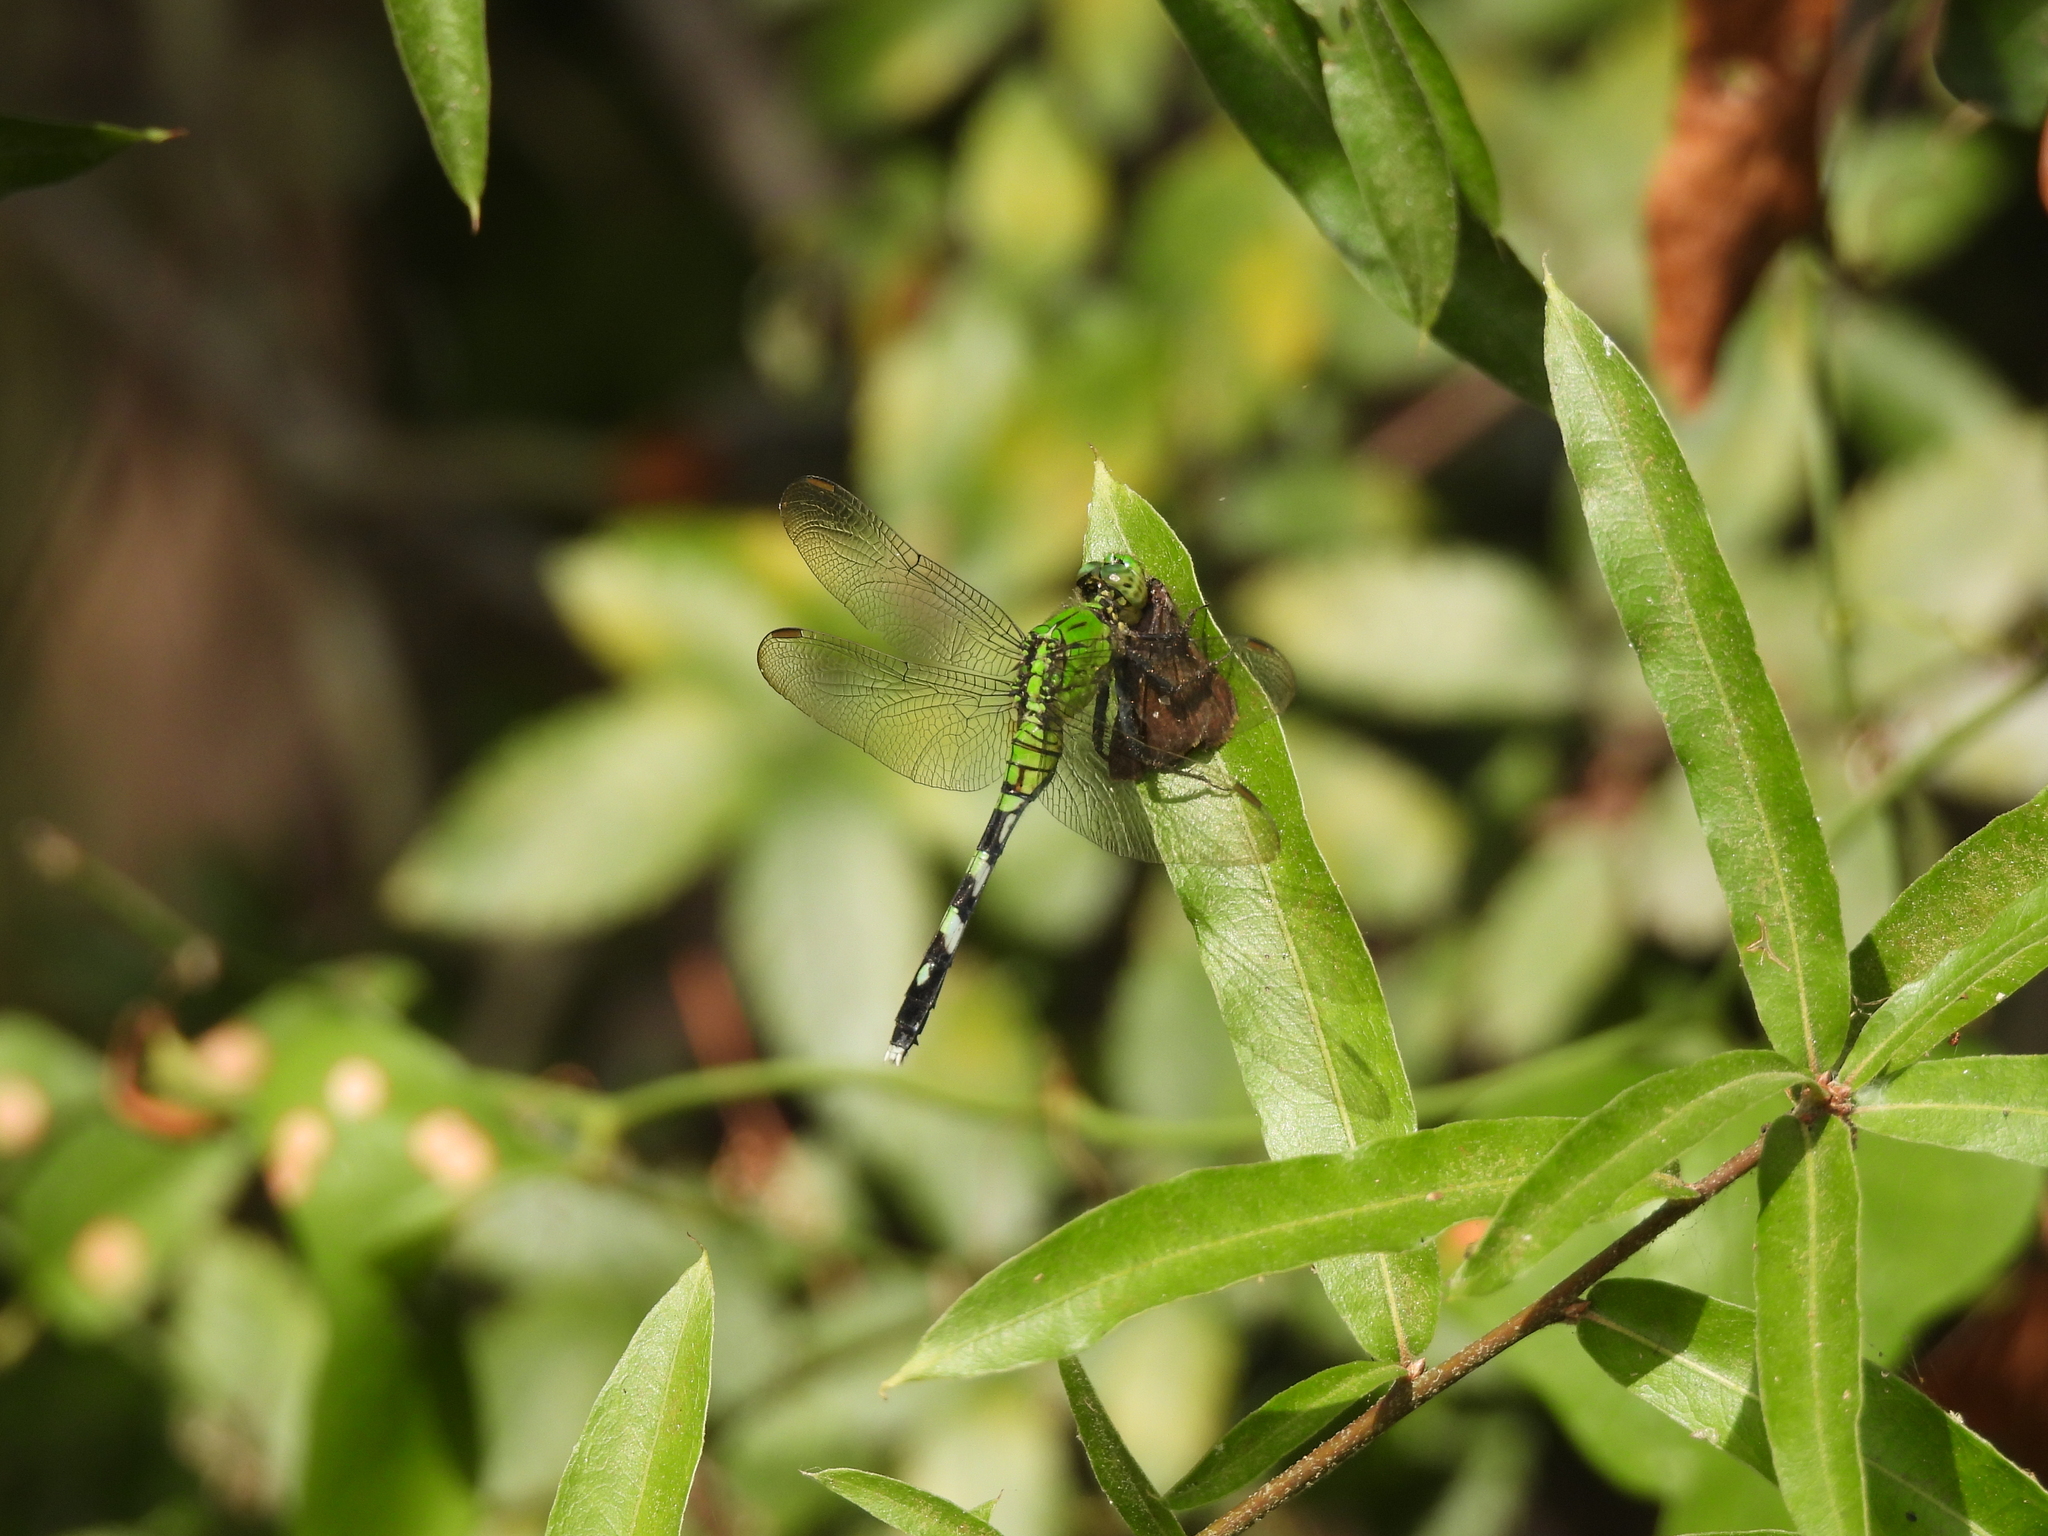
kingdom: Animalia
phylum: Arthropoda
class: Insecta
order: Odonata
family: Libellulidae
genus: Erythemis
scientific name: Erythemis simplicicollis
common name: Eastern pondhawk
